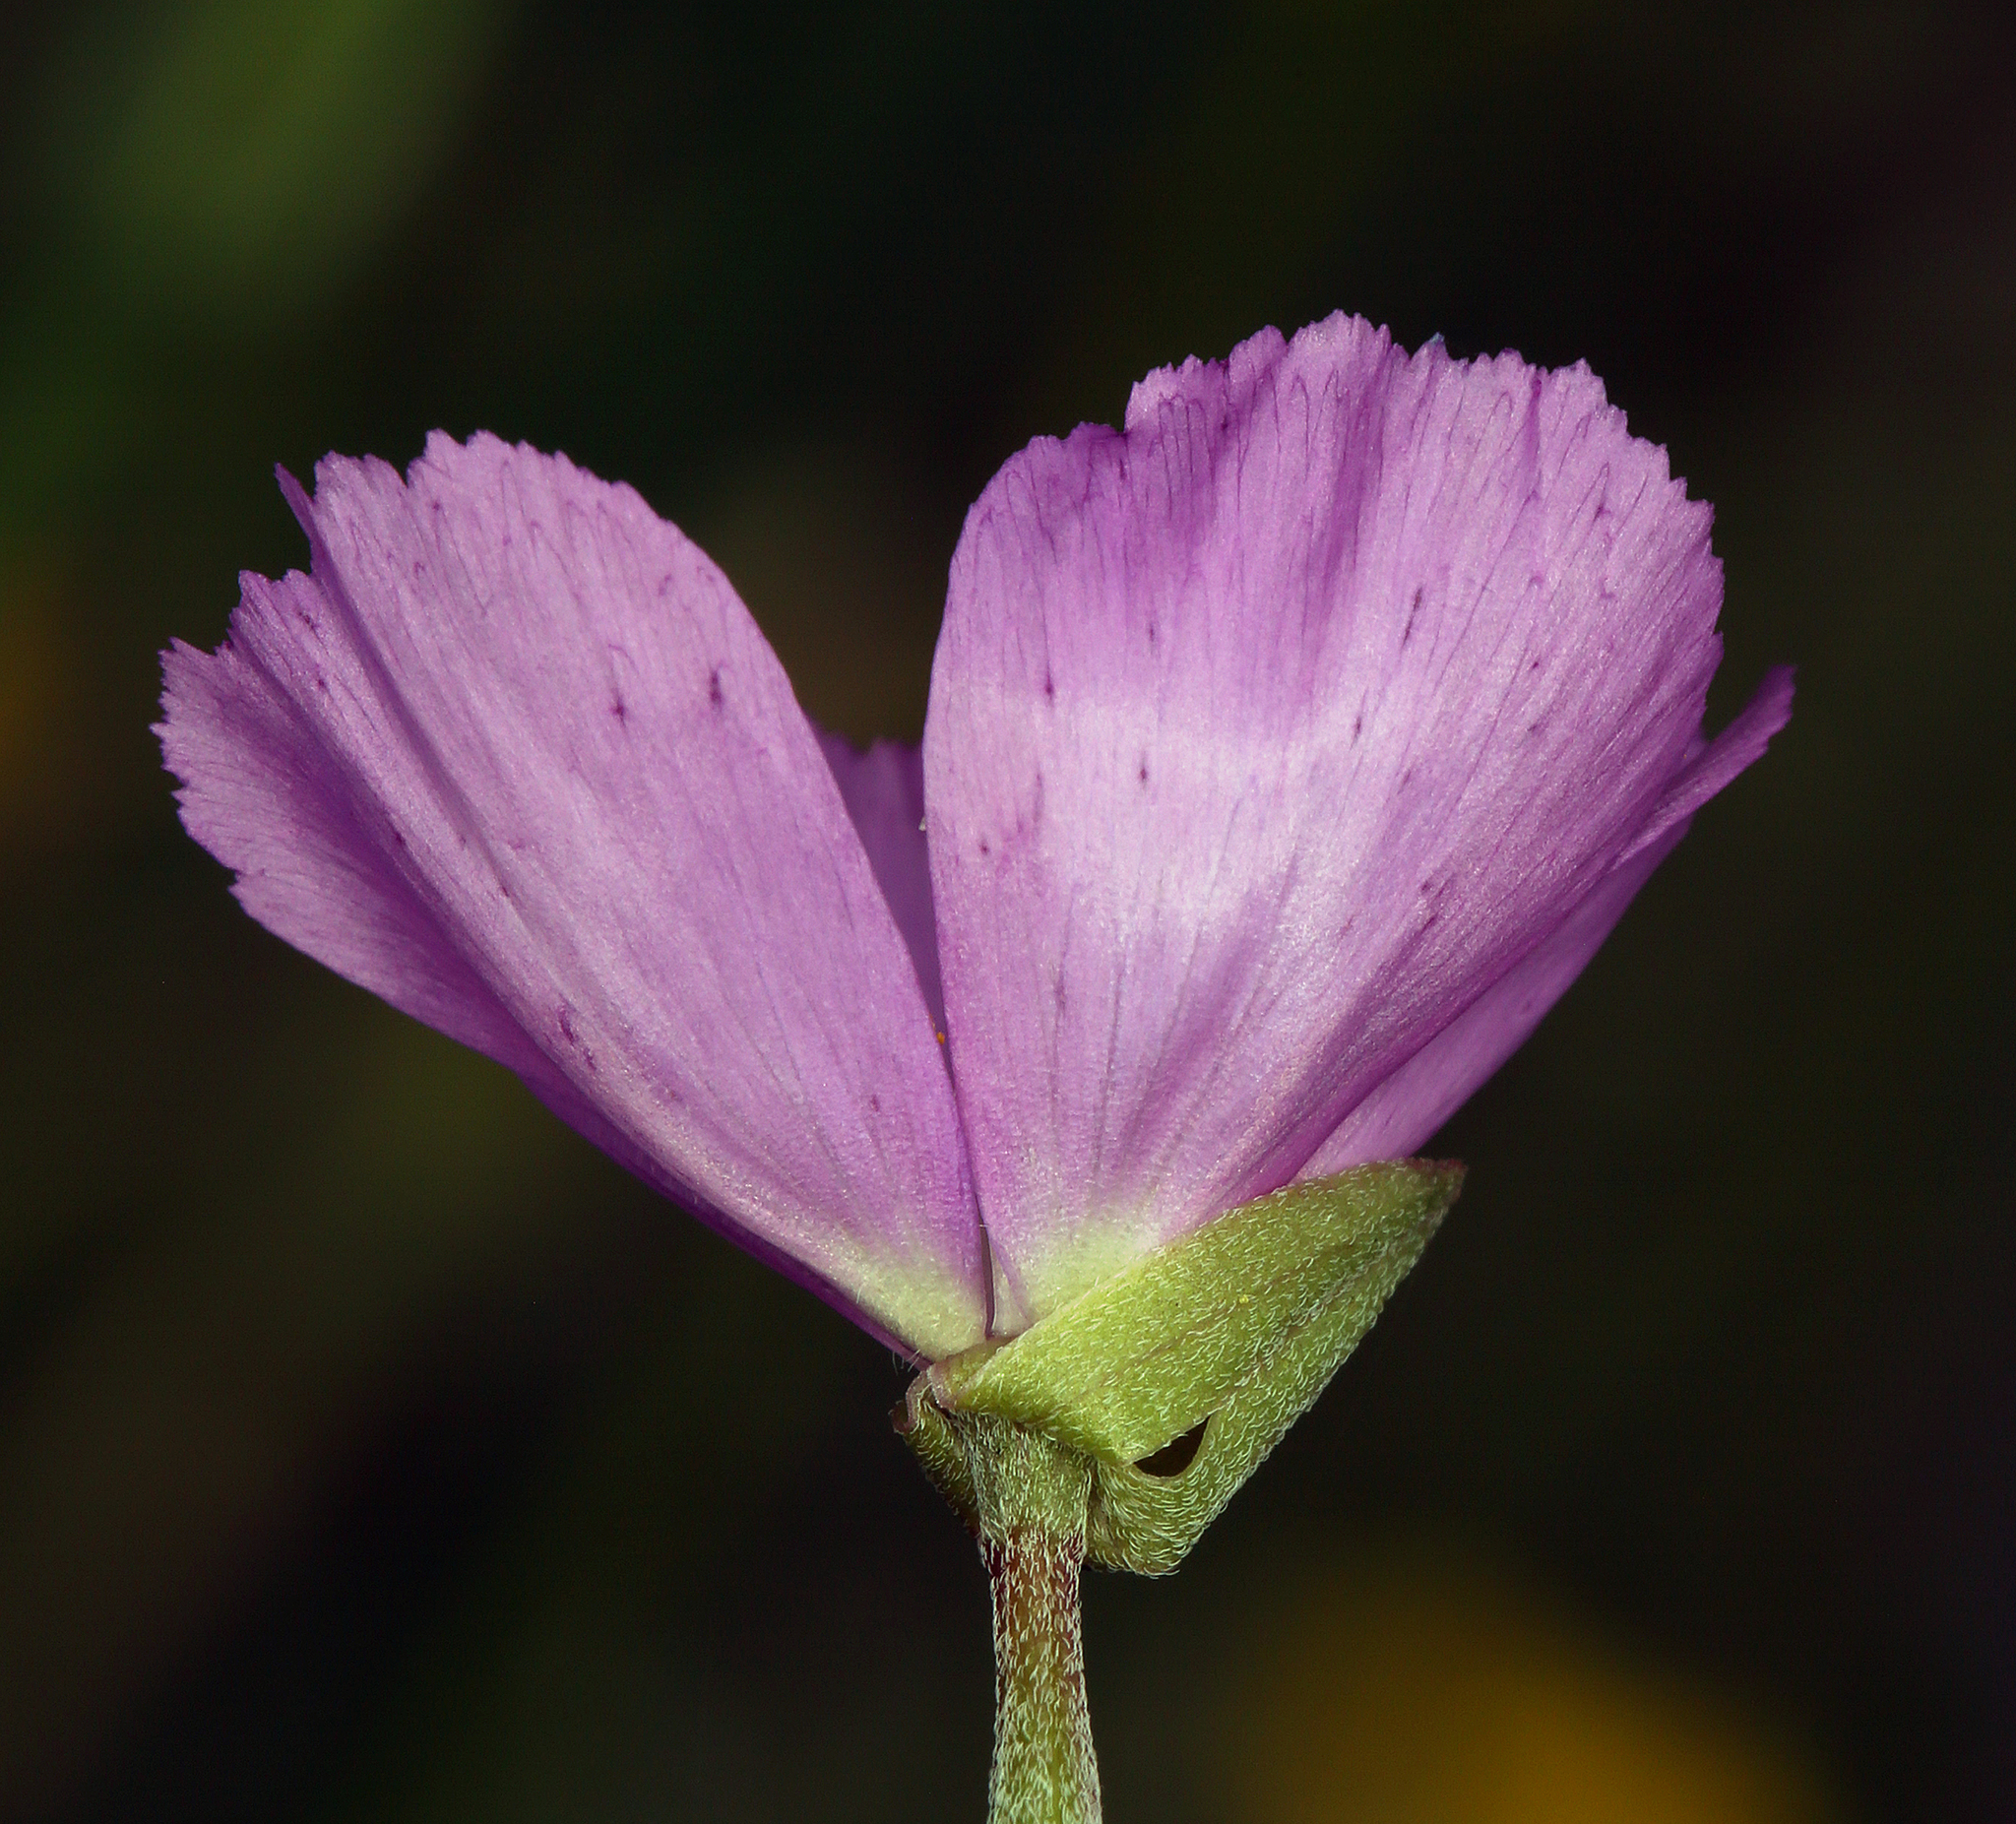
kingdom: Plantae
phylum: Tracheophyta
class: Magnoliopsida
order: Myrtales
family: Onagraceae
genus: Clarkia
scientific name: Clarkia gracilis
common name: Graceful clarkia
